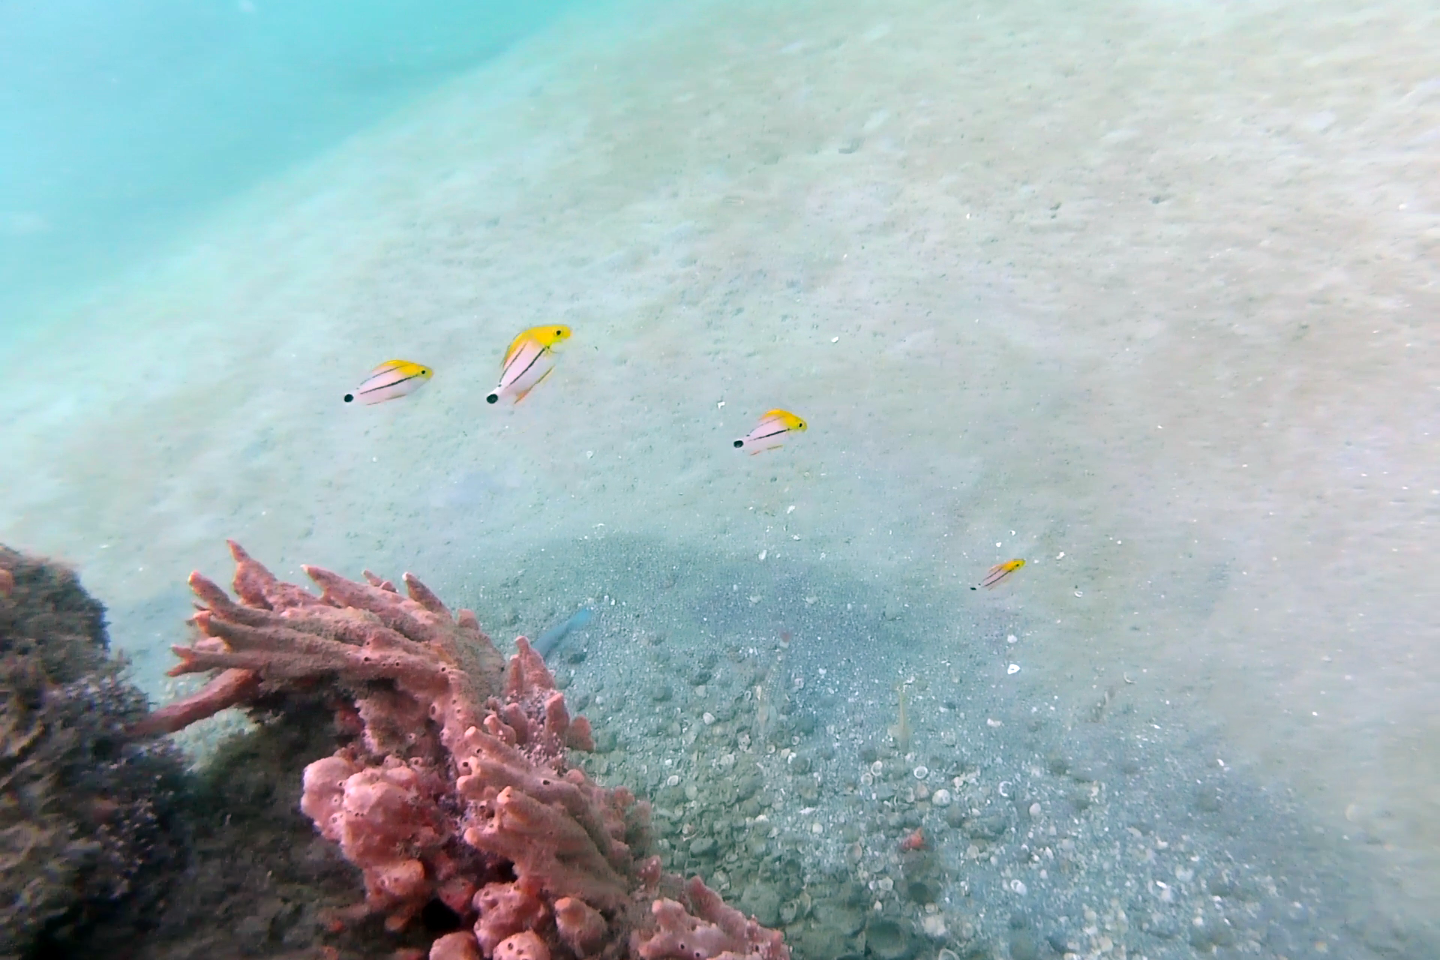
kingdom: Animalia
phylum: Chordata
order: Perciformes
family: Haemulidae
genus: Anisotremus
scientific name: Anisotremus virginicus
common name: Porkfish
